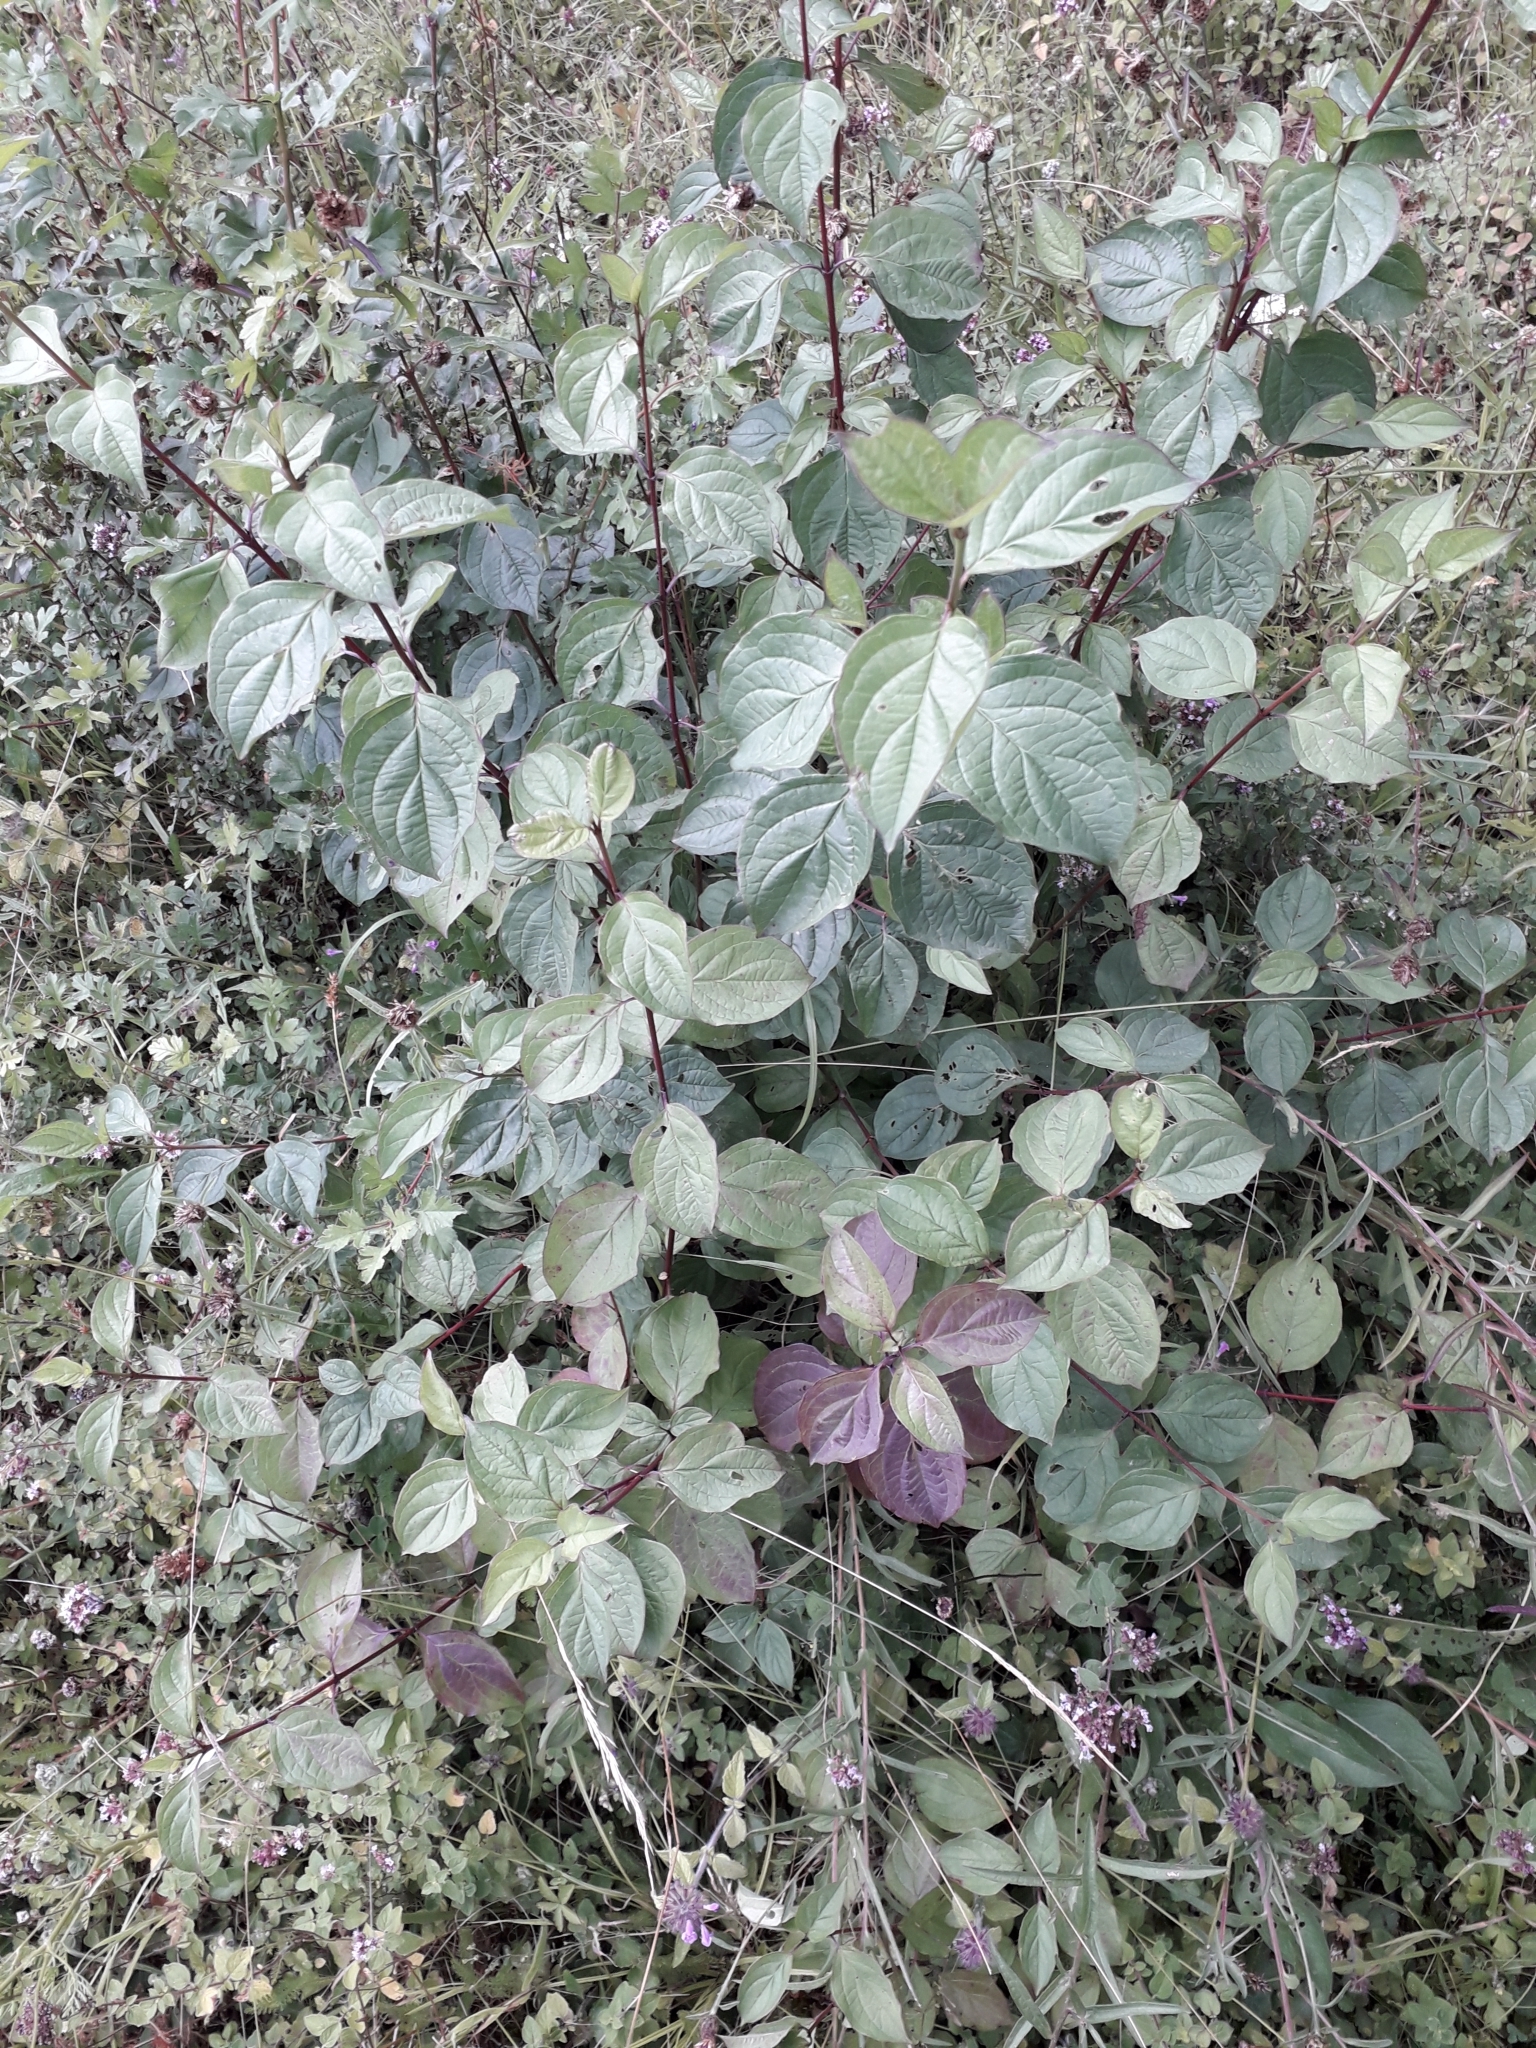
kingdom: Plantae
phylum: Tracheophyta
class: Magnoliopsida
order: Cornales
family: Cornaceae
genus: Cornus
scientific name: Cornus sanguinea
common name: Dogwood
